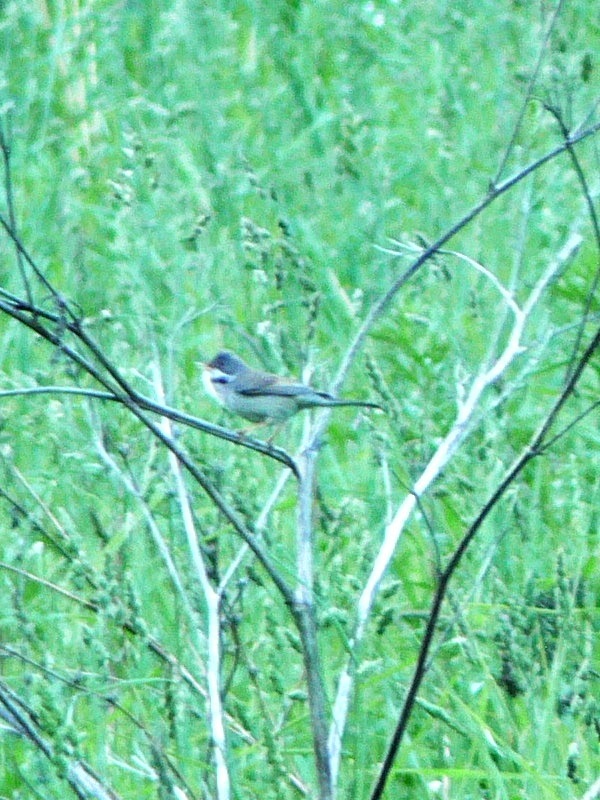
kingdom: Animalia
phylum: Chordata
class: Aves
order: Passeriformes
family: Sylviidae
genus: Sylvia
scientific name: Sylvia communis
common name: Common whitethroat
